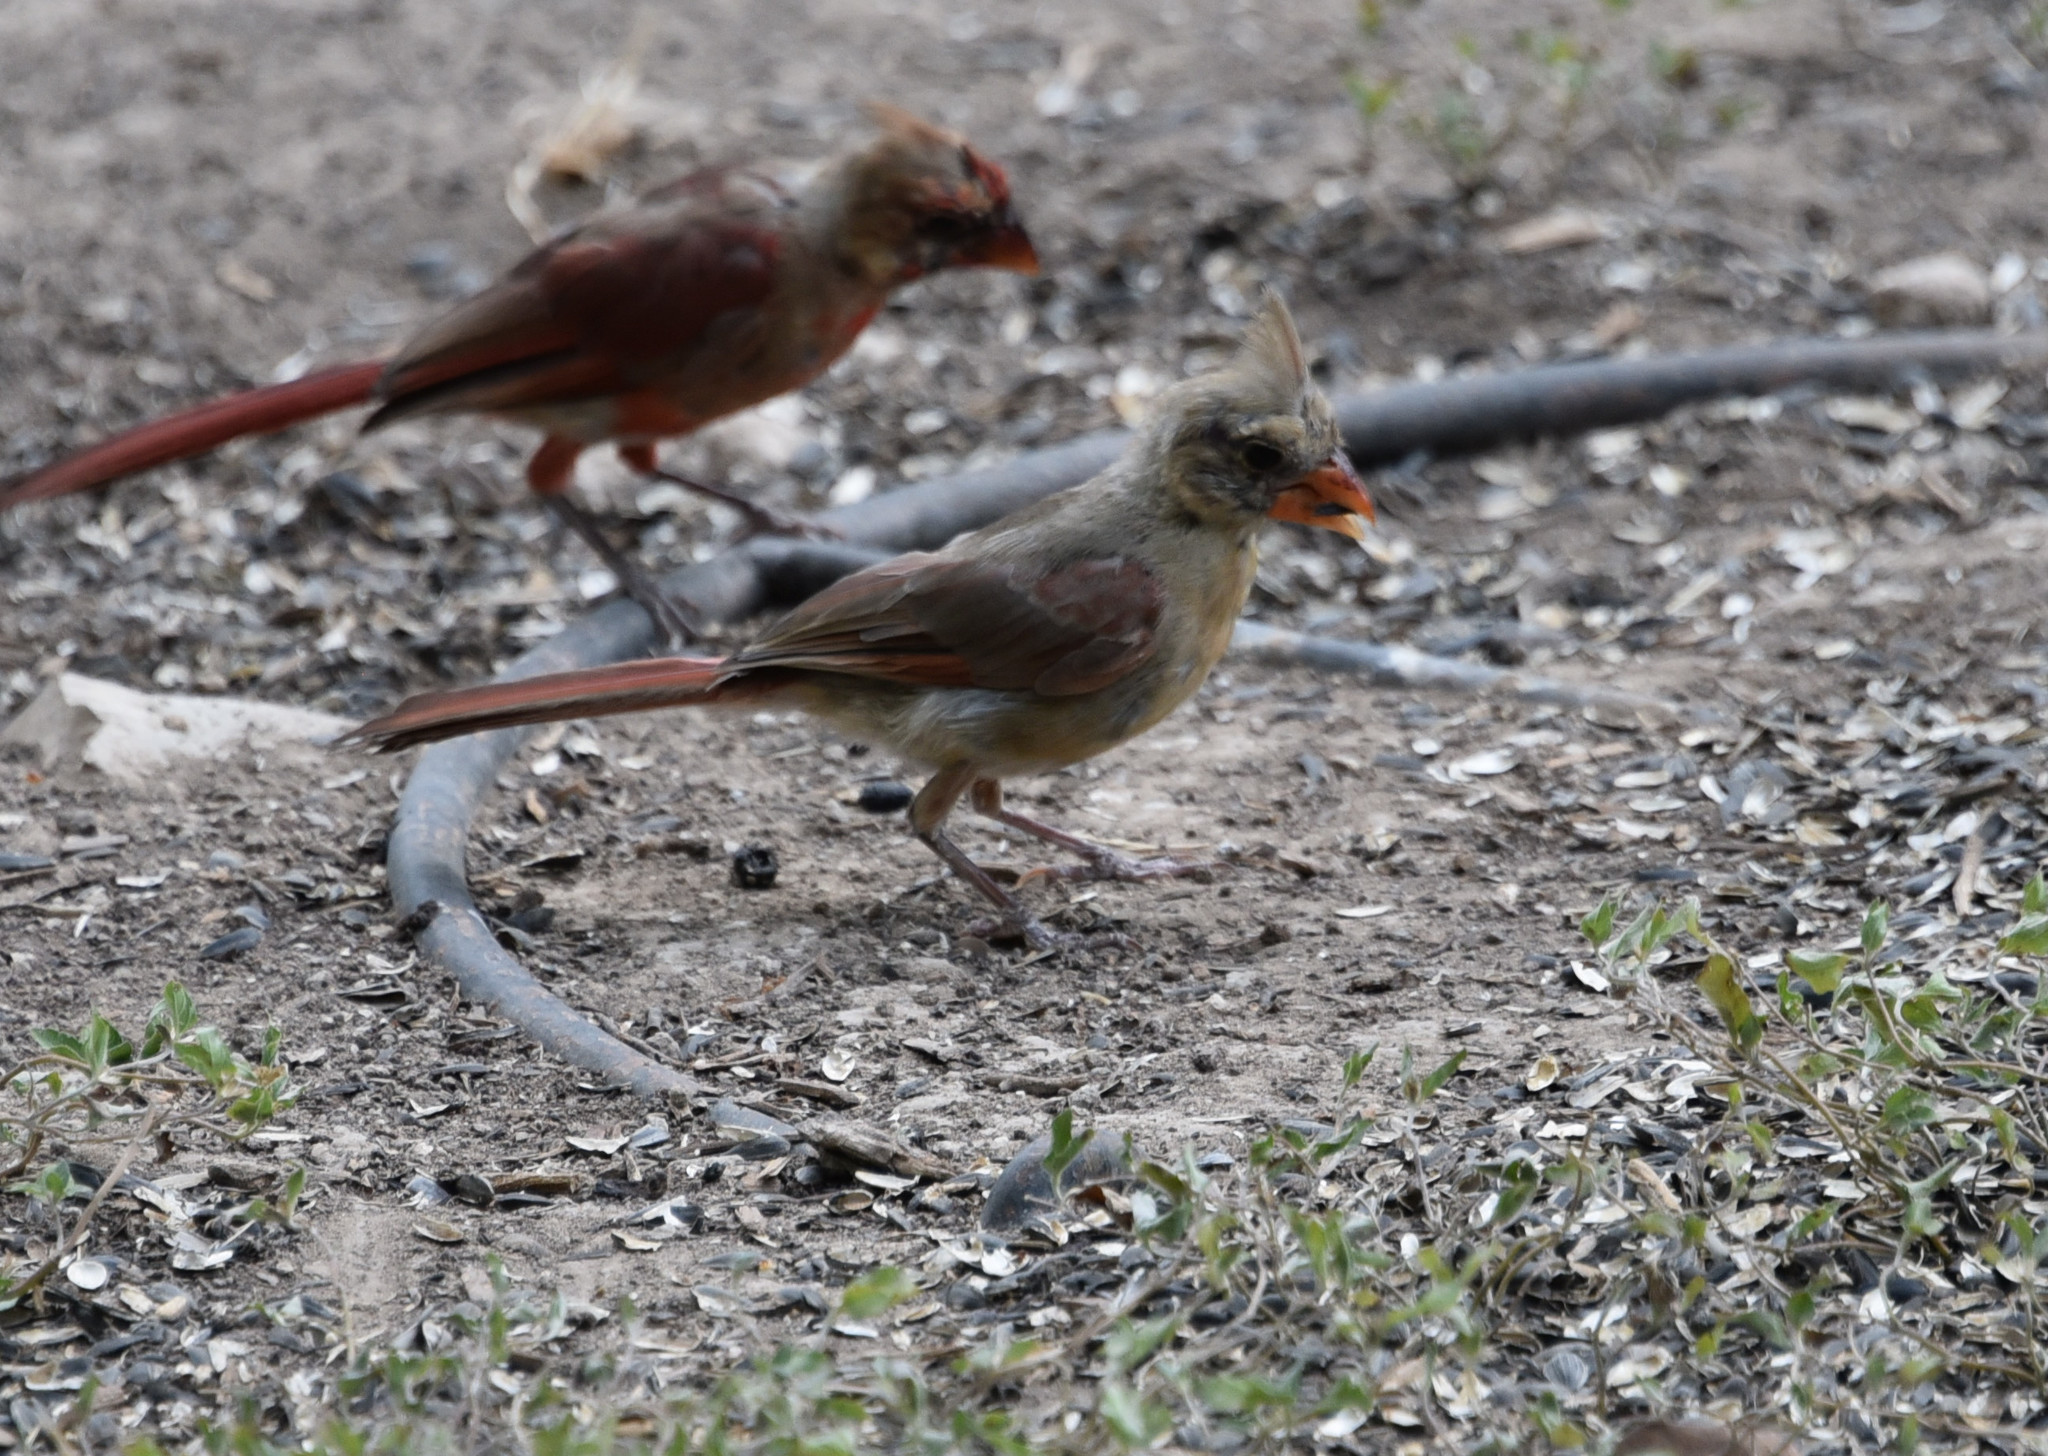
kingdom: Animalia
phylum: Chordata
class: Aves
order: Passeriformes
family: Cardinalidae
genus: Cardinalis
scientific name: Cardinalis cardinalis
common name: Northern cardinal
